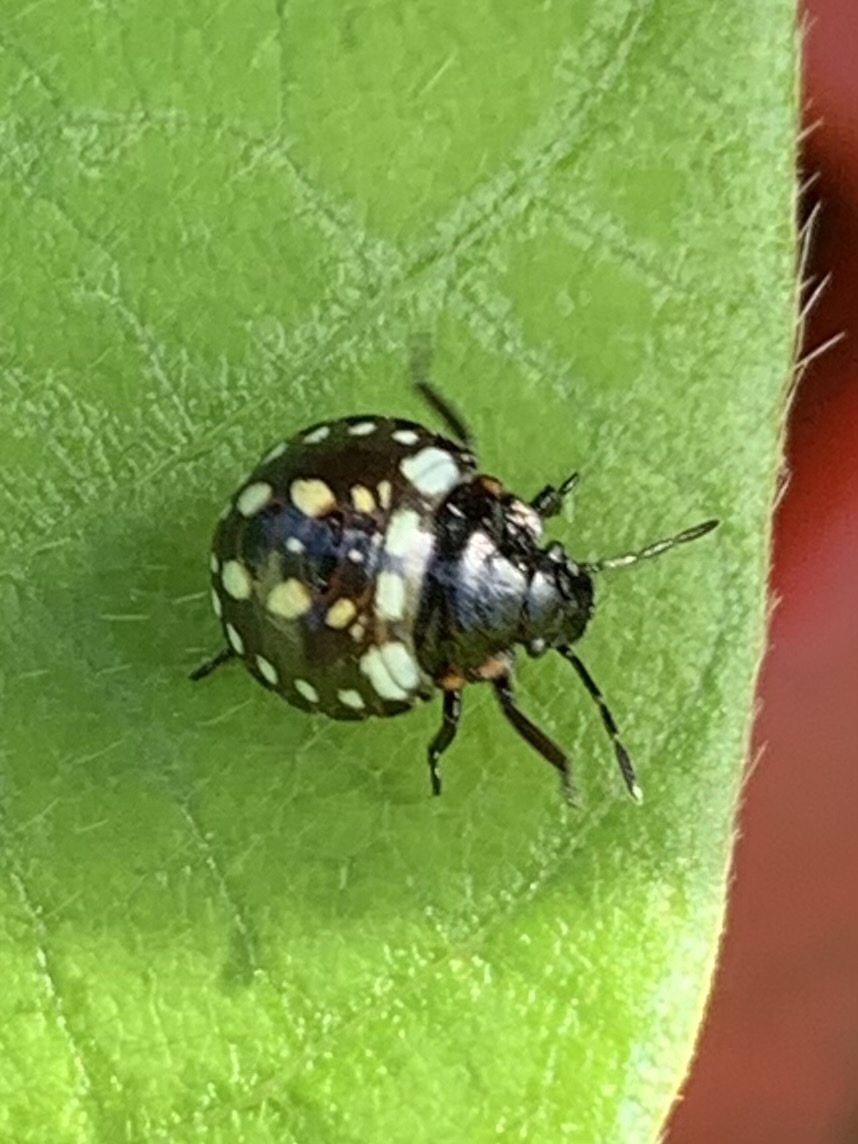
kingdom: Animalia
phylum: Arthropoda
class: Insecta
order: Hemiptera
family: Pentatomidae
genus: Nezara
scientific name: Nezara viridula
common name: Southern green stink bug
